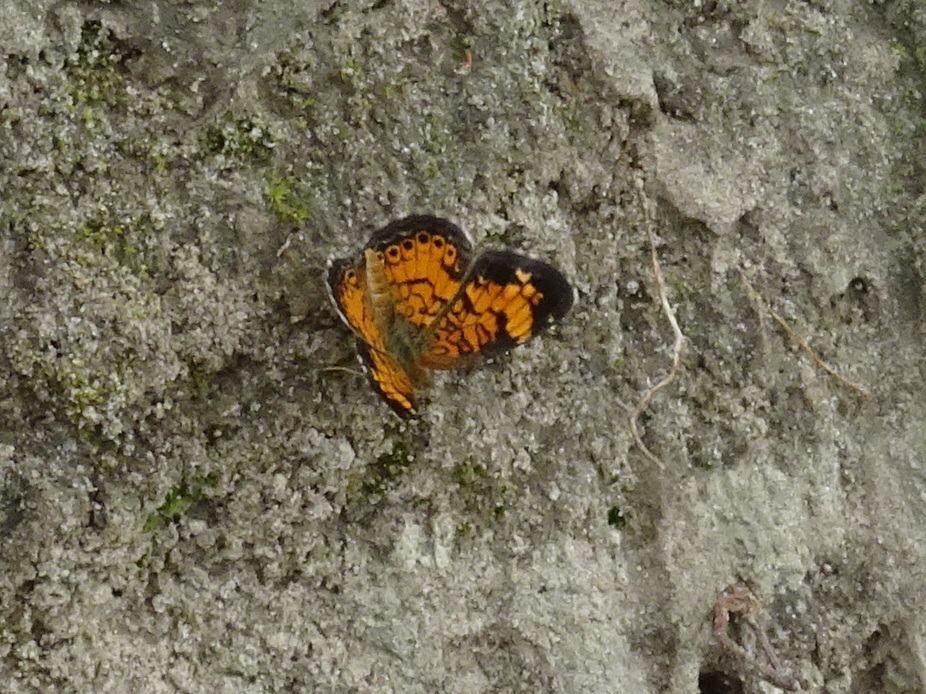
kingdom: Animalia
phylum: Arthropoda
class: Insecta
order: Lepidoptera
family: Nymphalidae
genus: Phyciodes
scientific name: Phyciodes tharos
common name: Pearl crescent
